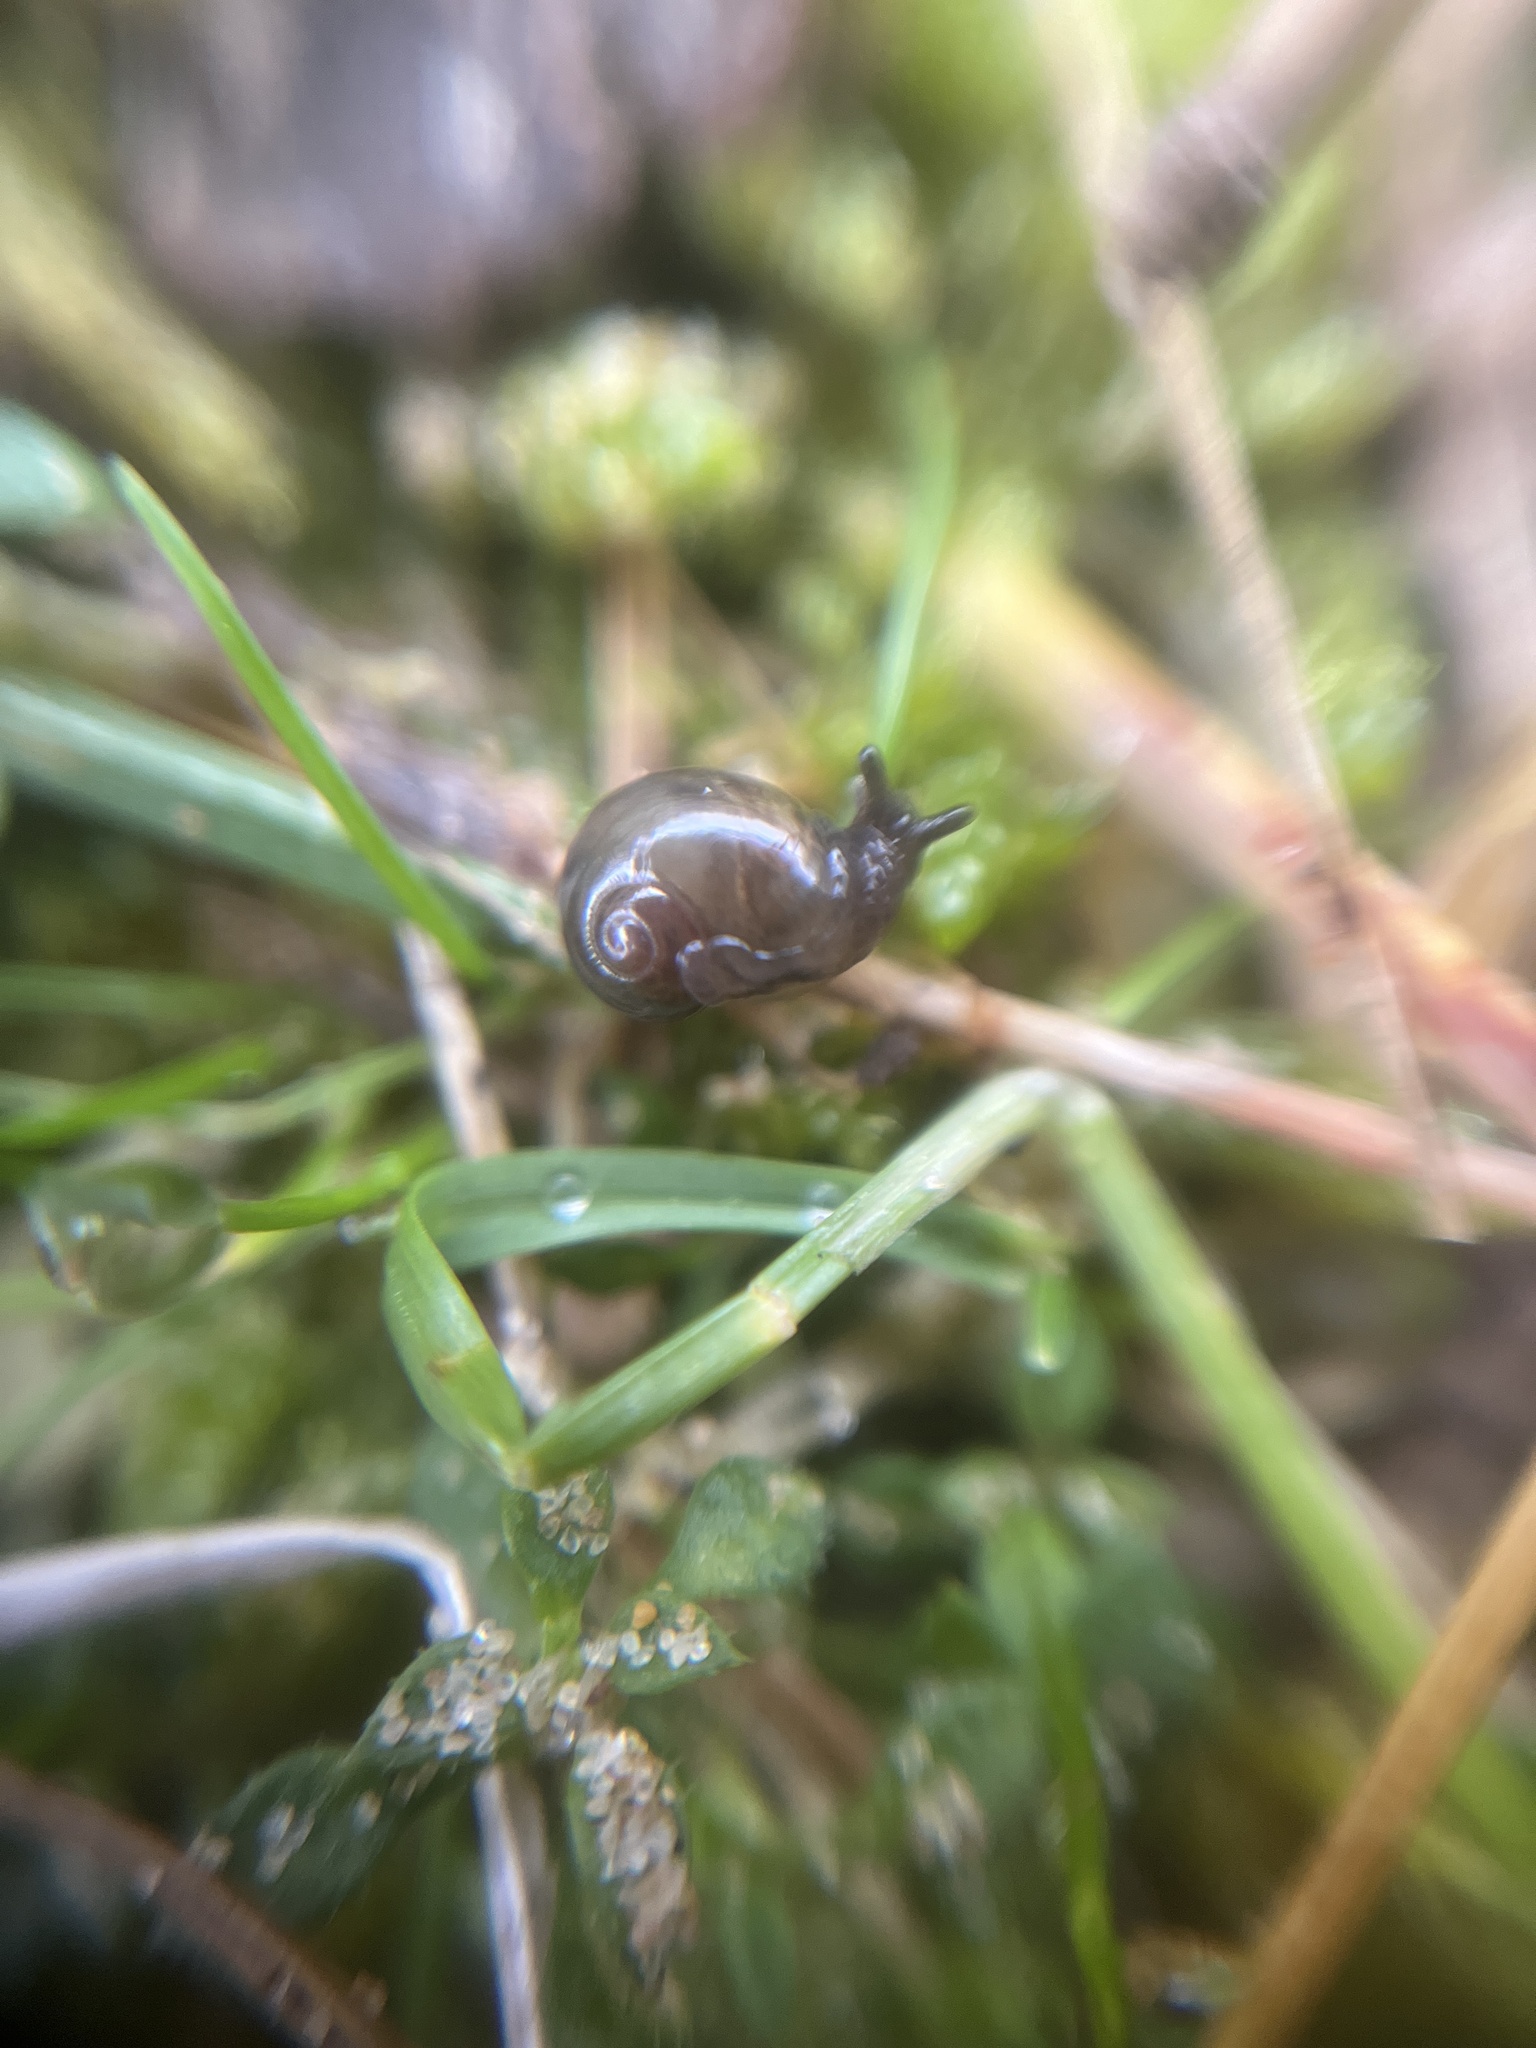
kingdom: Animalia
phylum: Mollusca
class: Gastropoda
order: Stylommatophora
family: Vitrinidae
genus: Vitrina
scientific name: Vitrina pellucida
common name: Pellucid glass snail
